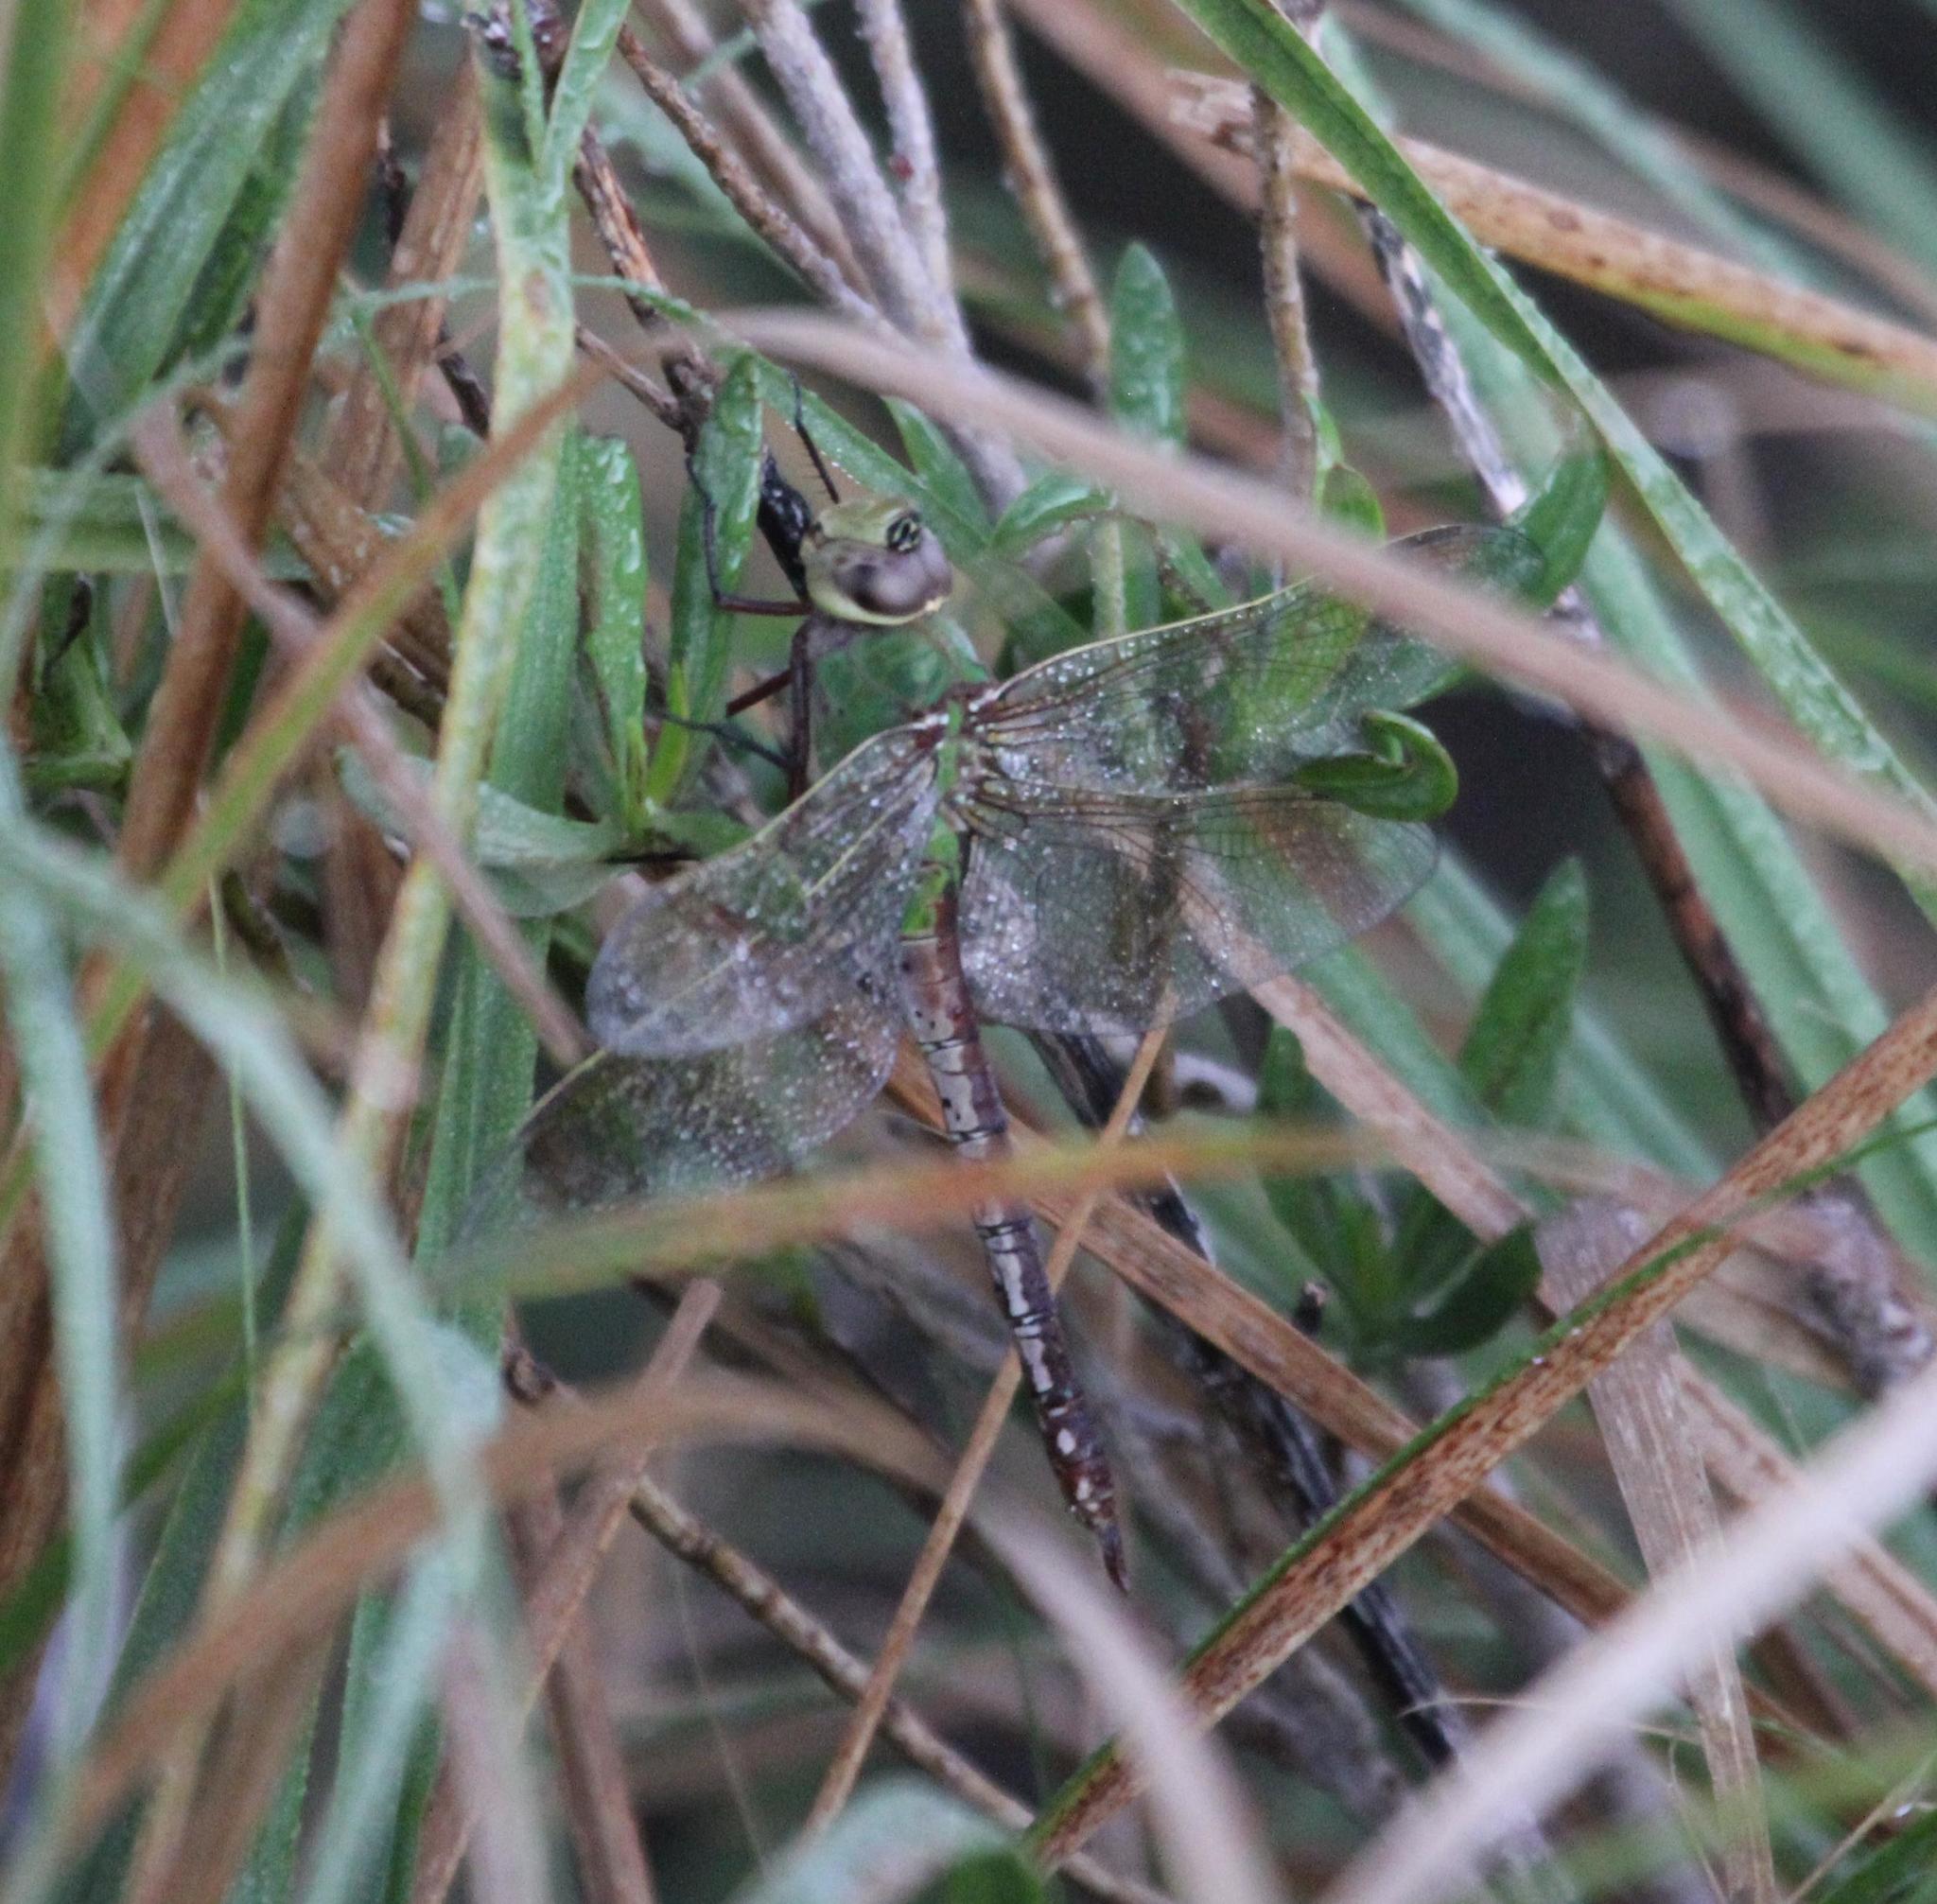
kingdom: Animalia
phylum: Arthropoda
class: Insecta
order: Odonata
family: Aeshnidae
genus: Anax
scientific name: Anax junius
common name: Common green darner
